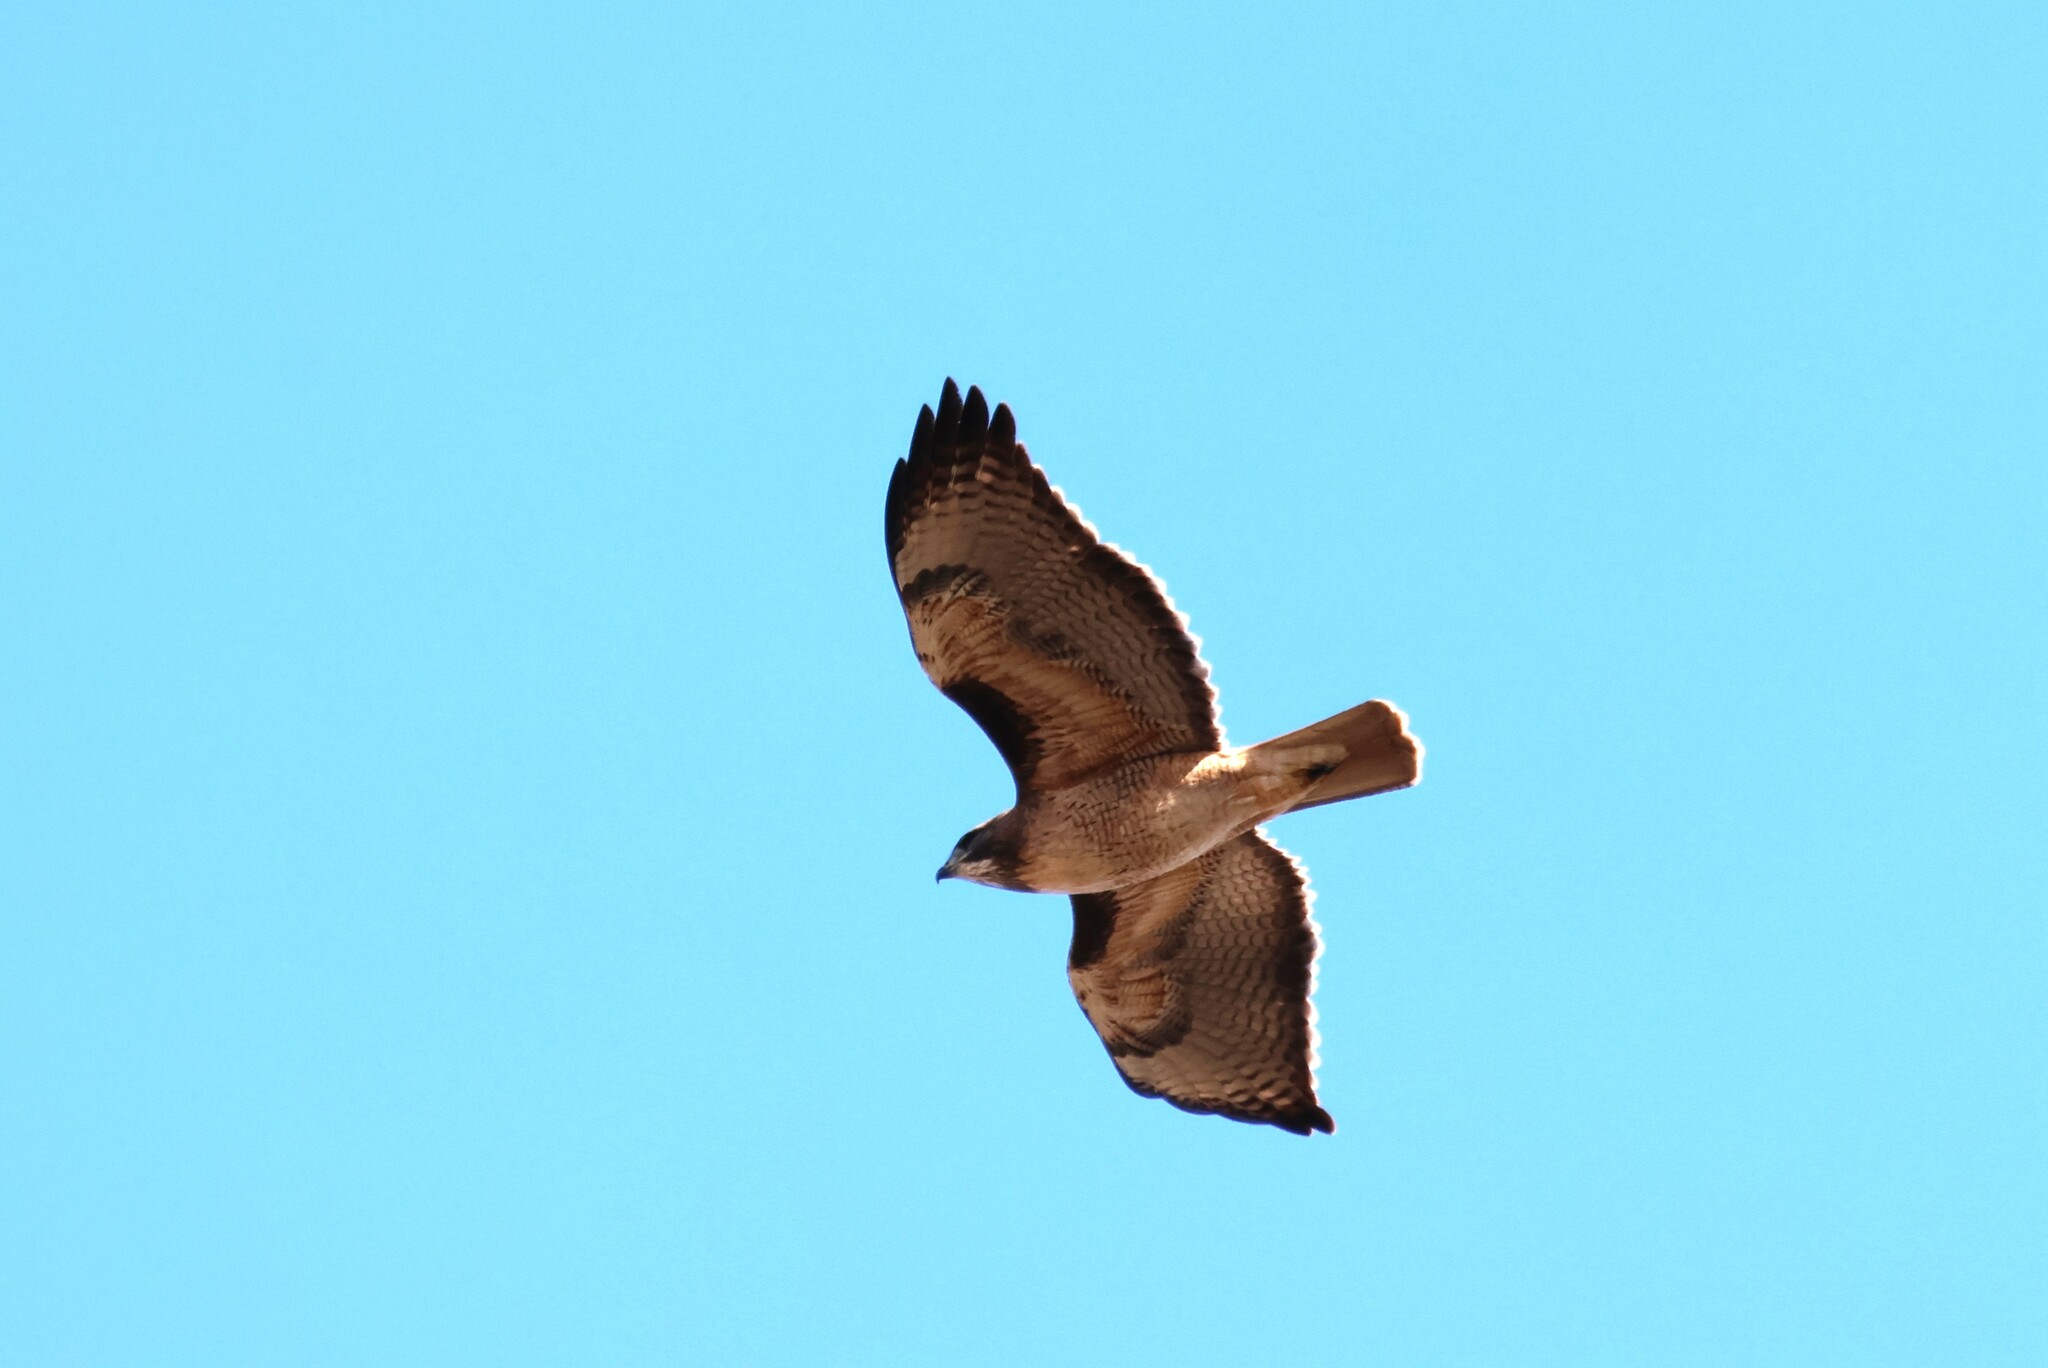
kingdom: Animalia
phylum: Chordata
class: Aves
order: Accipitriformes
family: Accipitridae
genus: Buteo
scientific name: Buteo jamaicensis
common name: Red-tailed hawk
